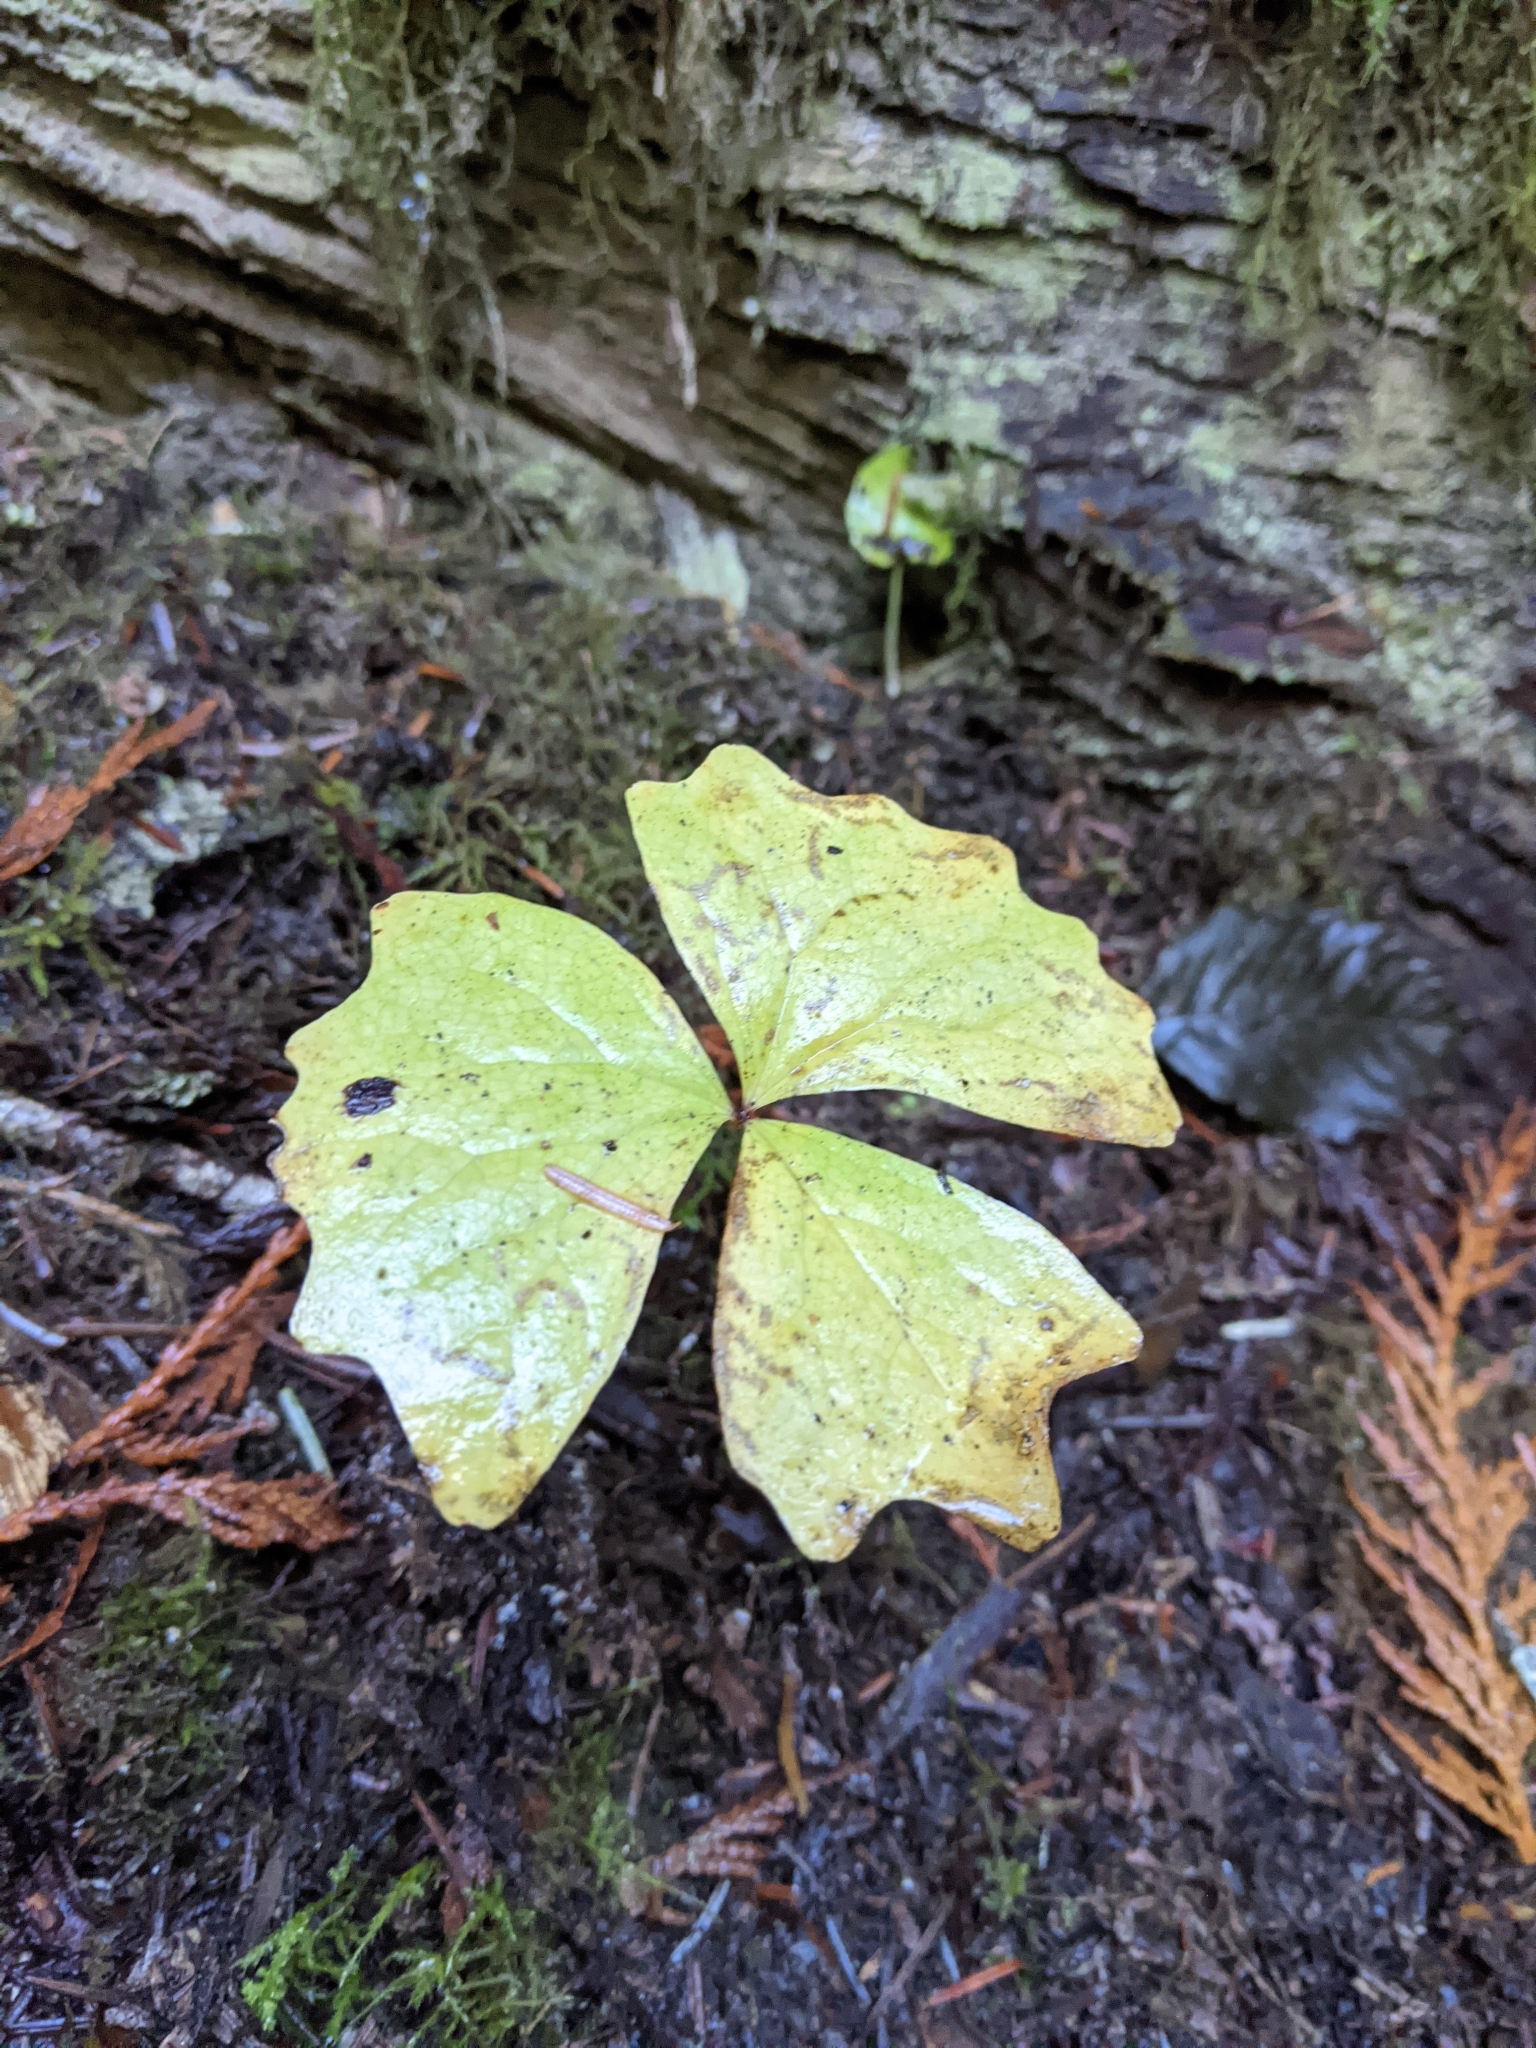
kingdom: Plantae
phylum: Tracheophyta
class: Magnoliopsida
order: Ranunculales
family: Berberidaceae
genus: Achlys
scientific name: Achlys triphylla
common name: Vanilla-leaf
